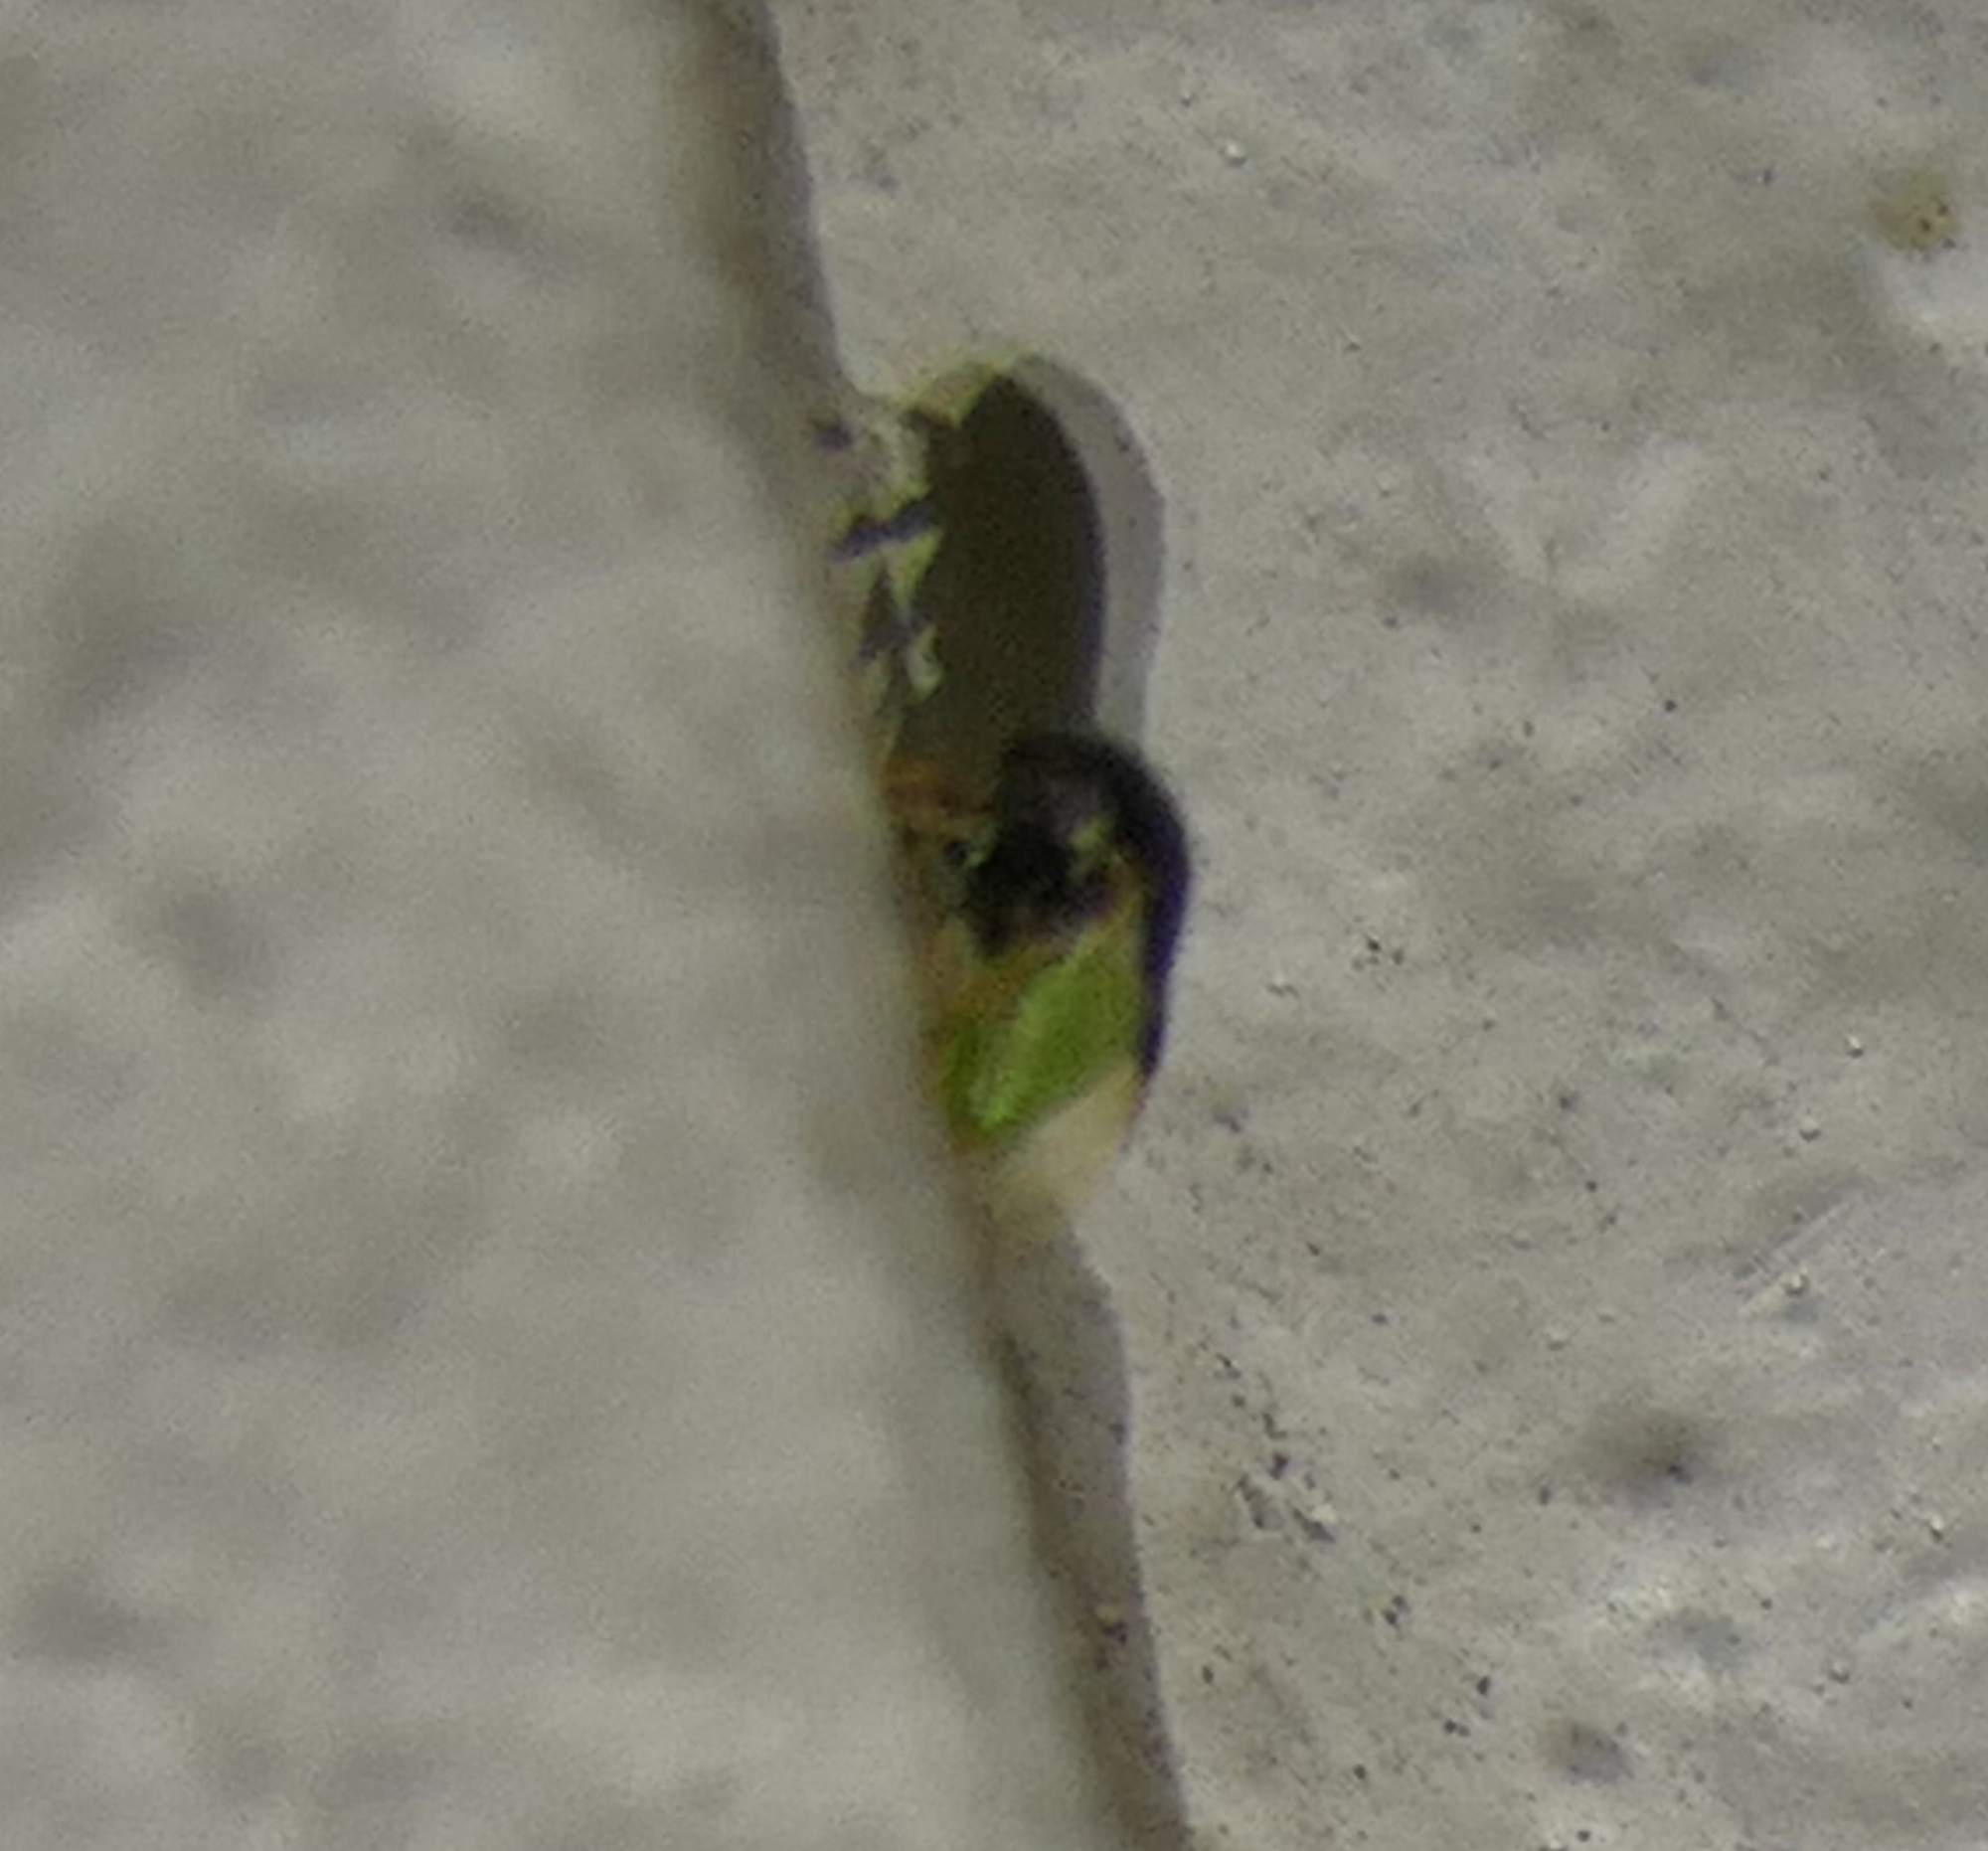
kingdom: Animalia
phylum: Arthropoda
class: Insecta
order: Hemiptera
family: Membracidae
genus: Micrutalis
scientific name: Micrutalis calva
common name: Honeylocust treehopper
